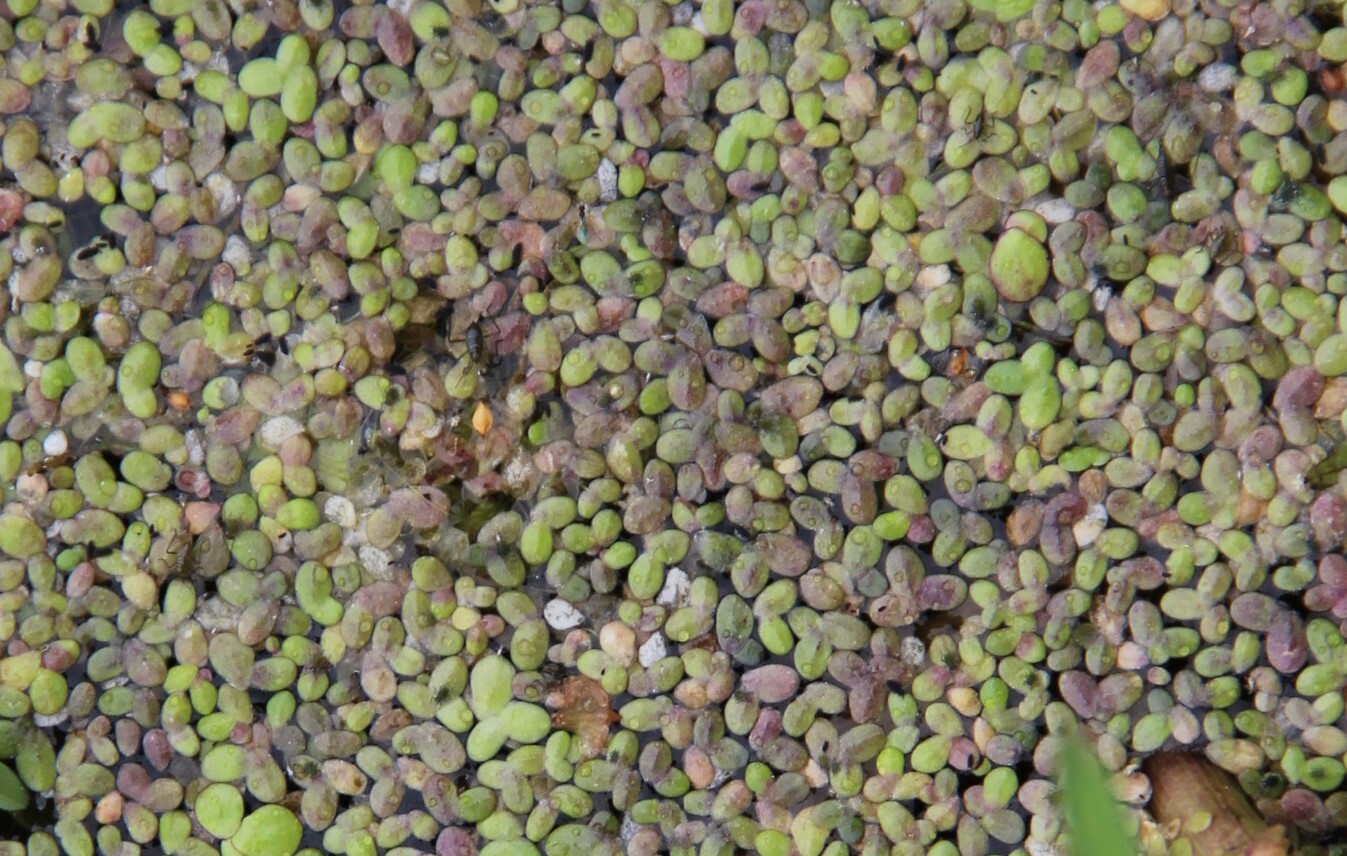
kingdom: Plantae
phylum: Tracheophyta
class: Liliopsida
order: Alismatales
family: Araceae
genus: Lemna
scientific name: Lemna turionifera
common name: Perennial duckweed
